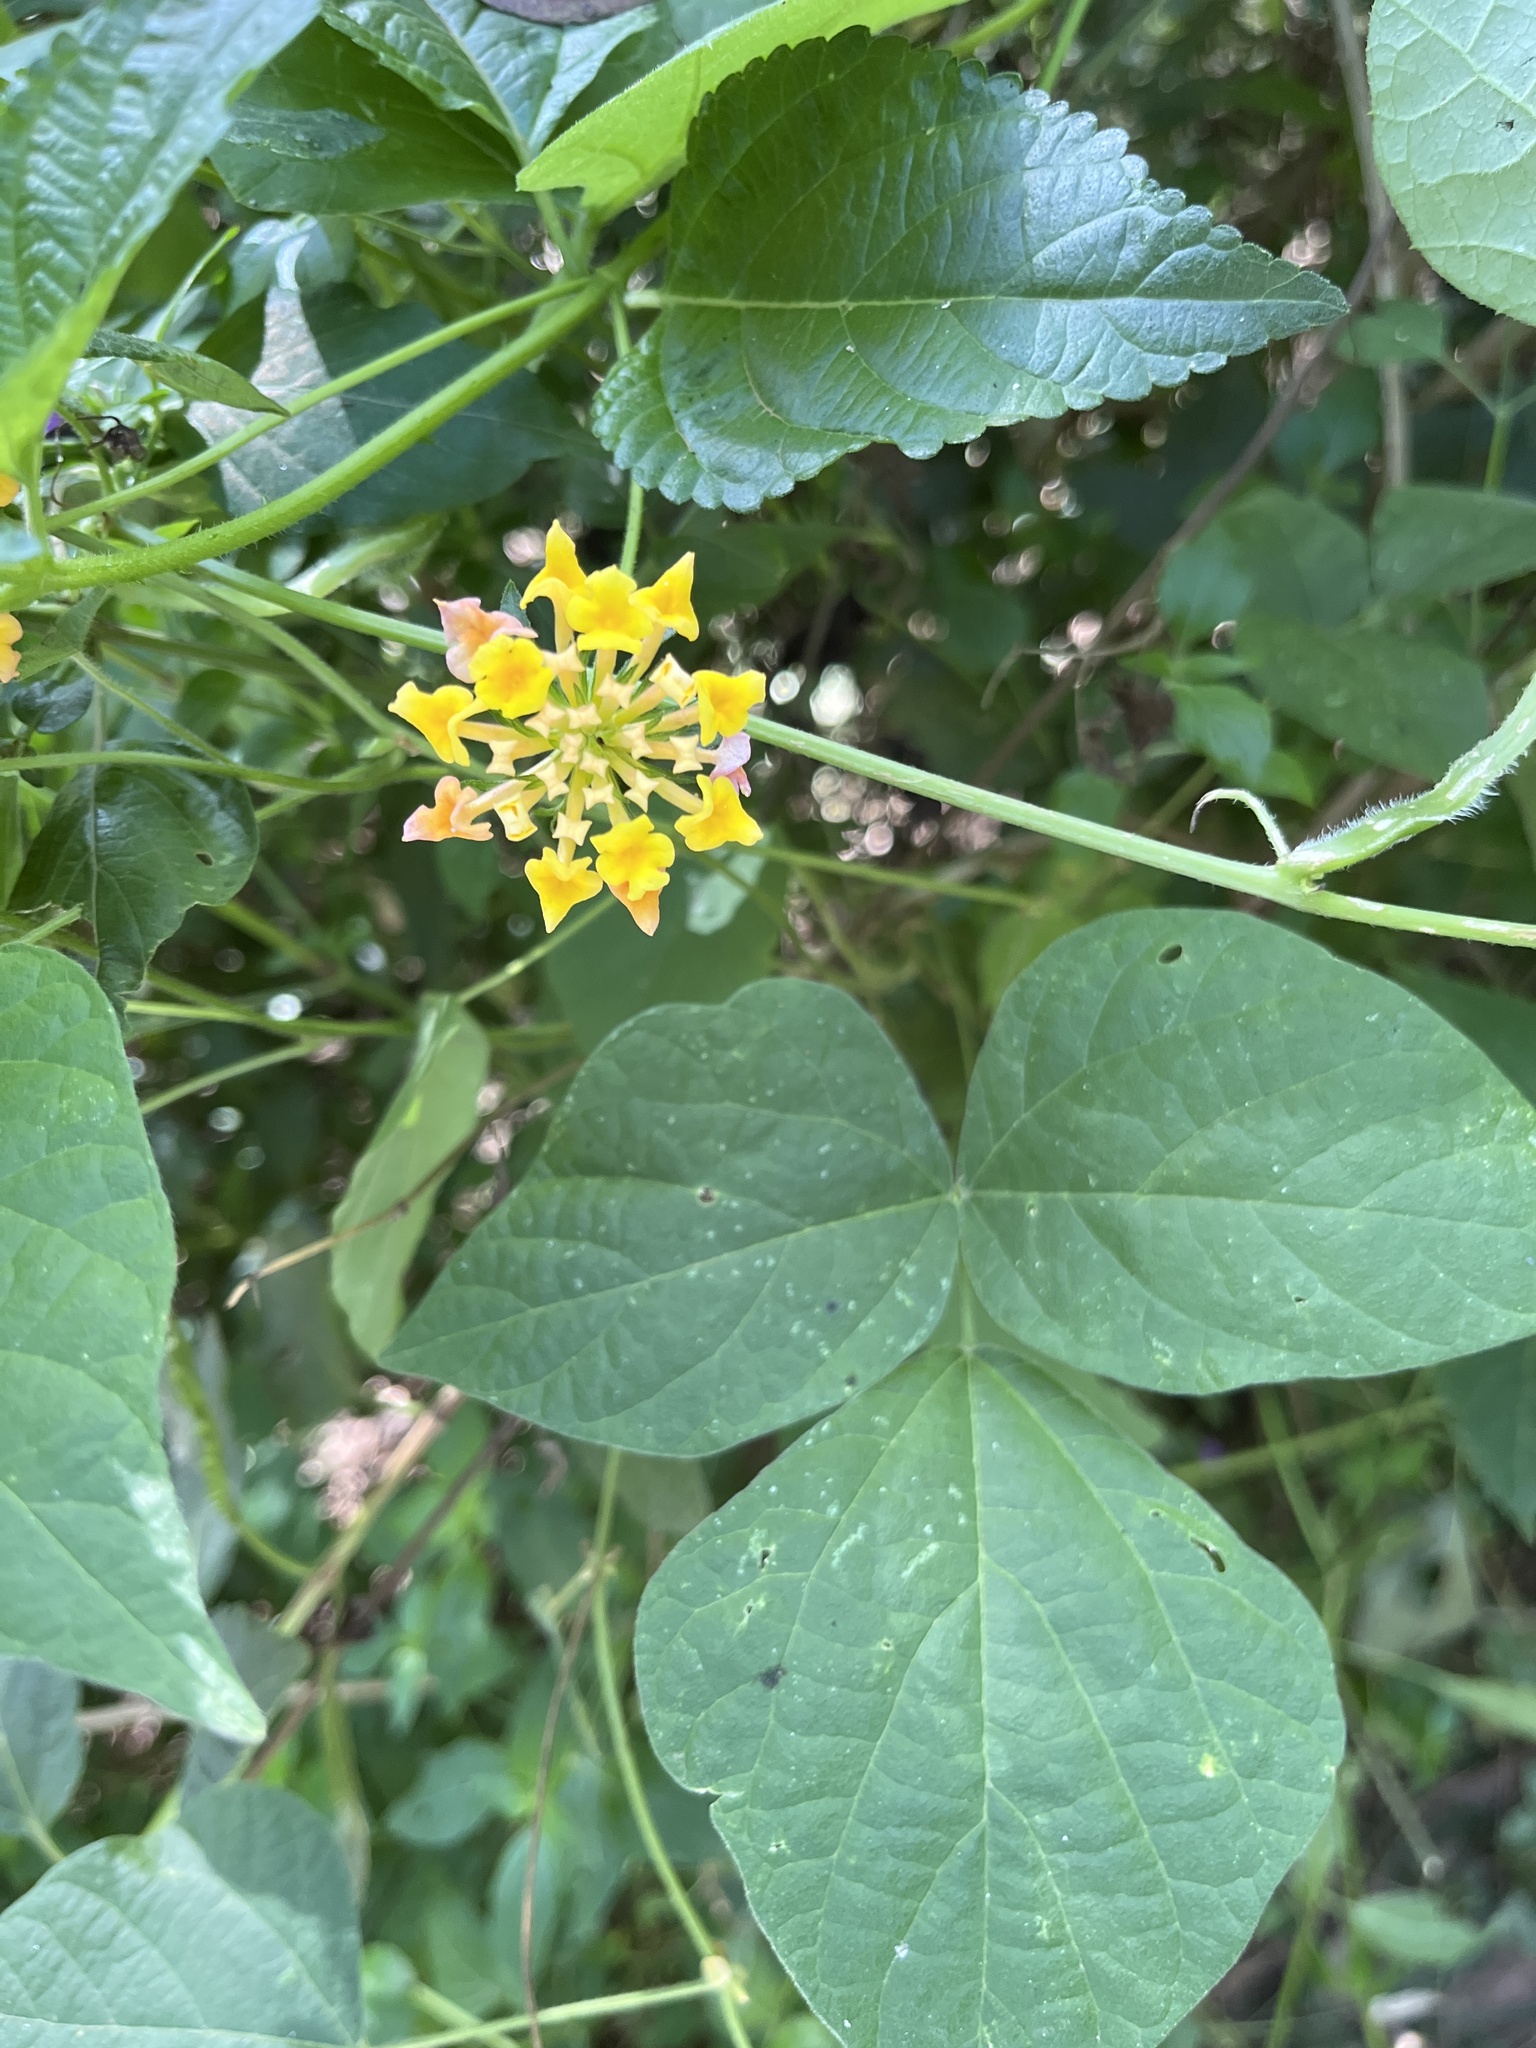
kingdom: Plantae
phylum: Tracheophyta
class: Magnoliopsida
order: Lamiales
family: Verbenaceae
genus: Lantana
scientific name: Lantana camara
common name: Lantana
